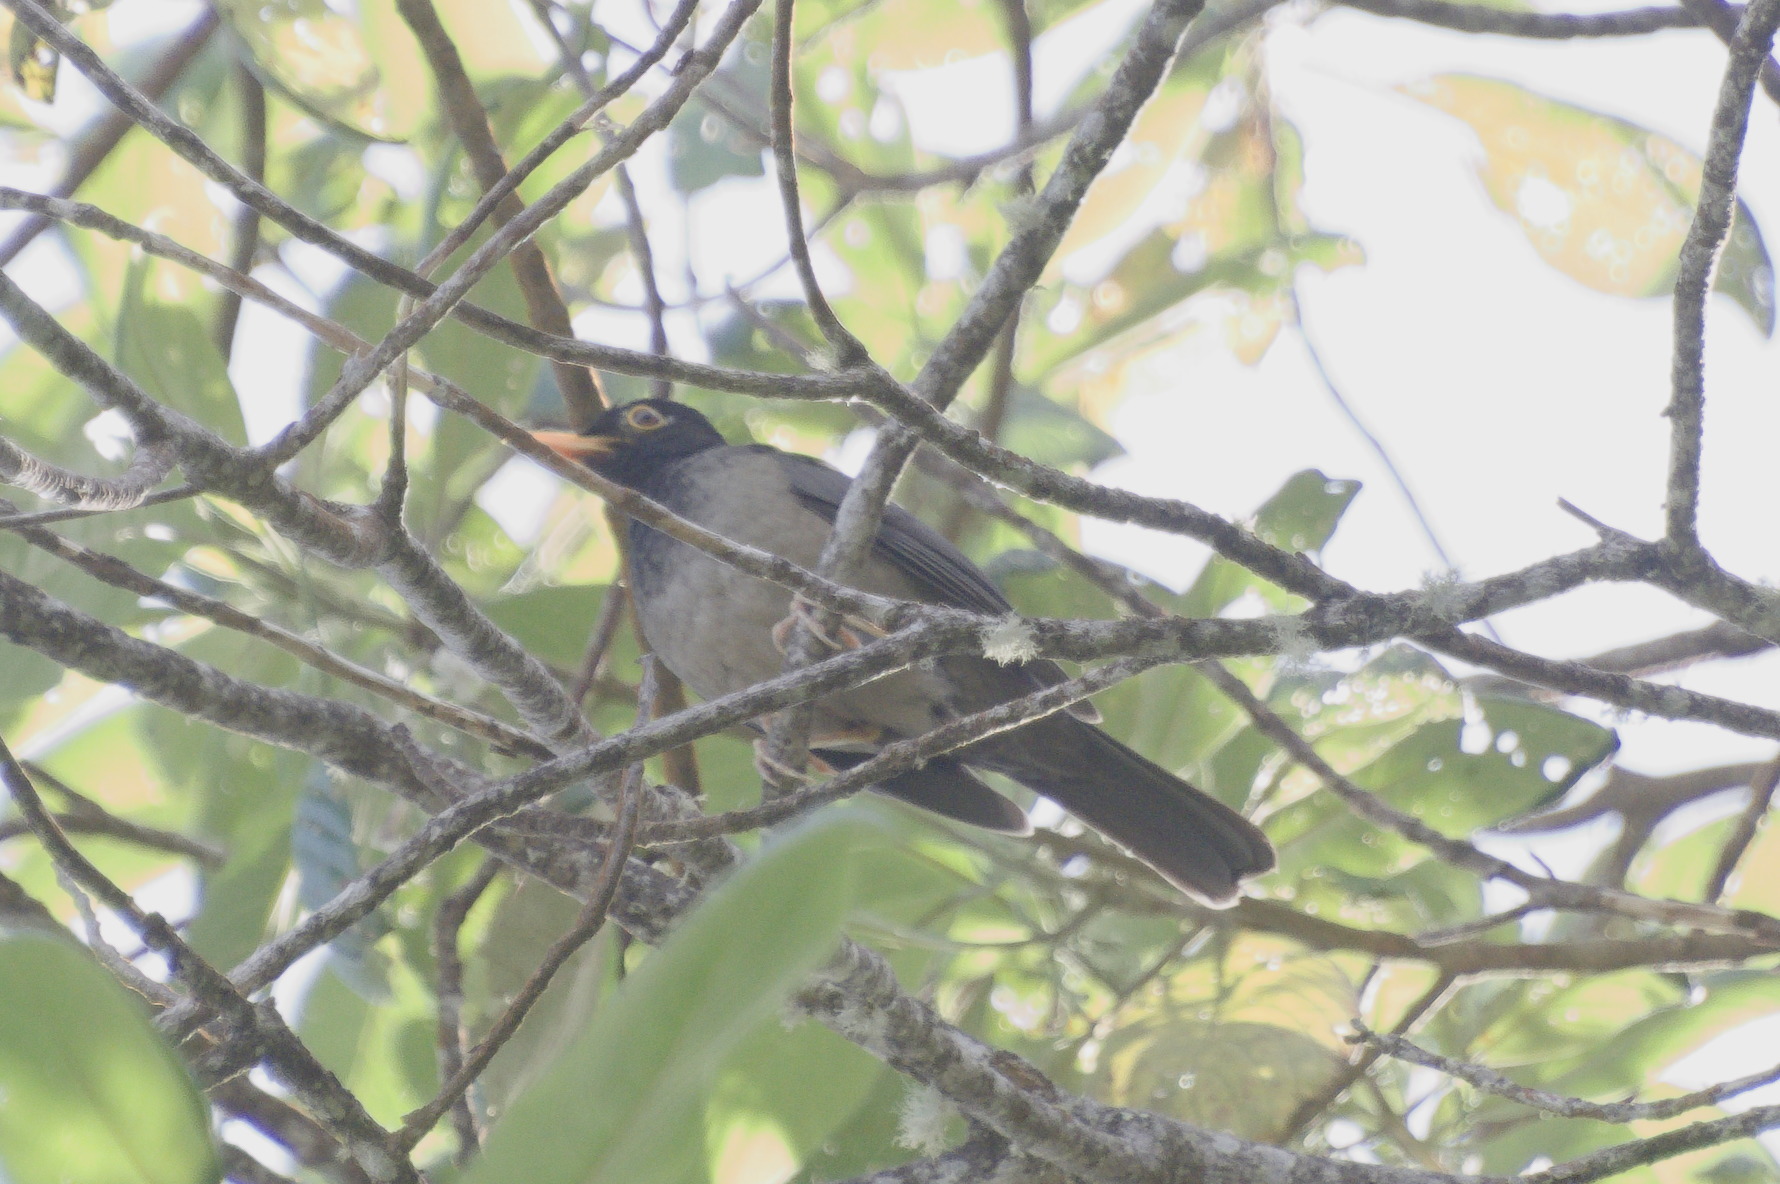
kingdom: Animalia
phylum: Chordata
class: Aves
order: Passeriformes
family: Turdidae
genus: Turdus
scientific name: Turdus olivater
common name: Black-hooded thrush
